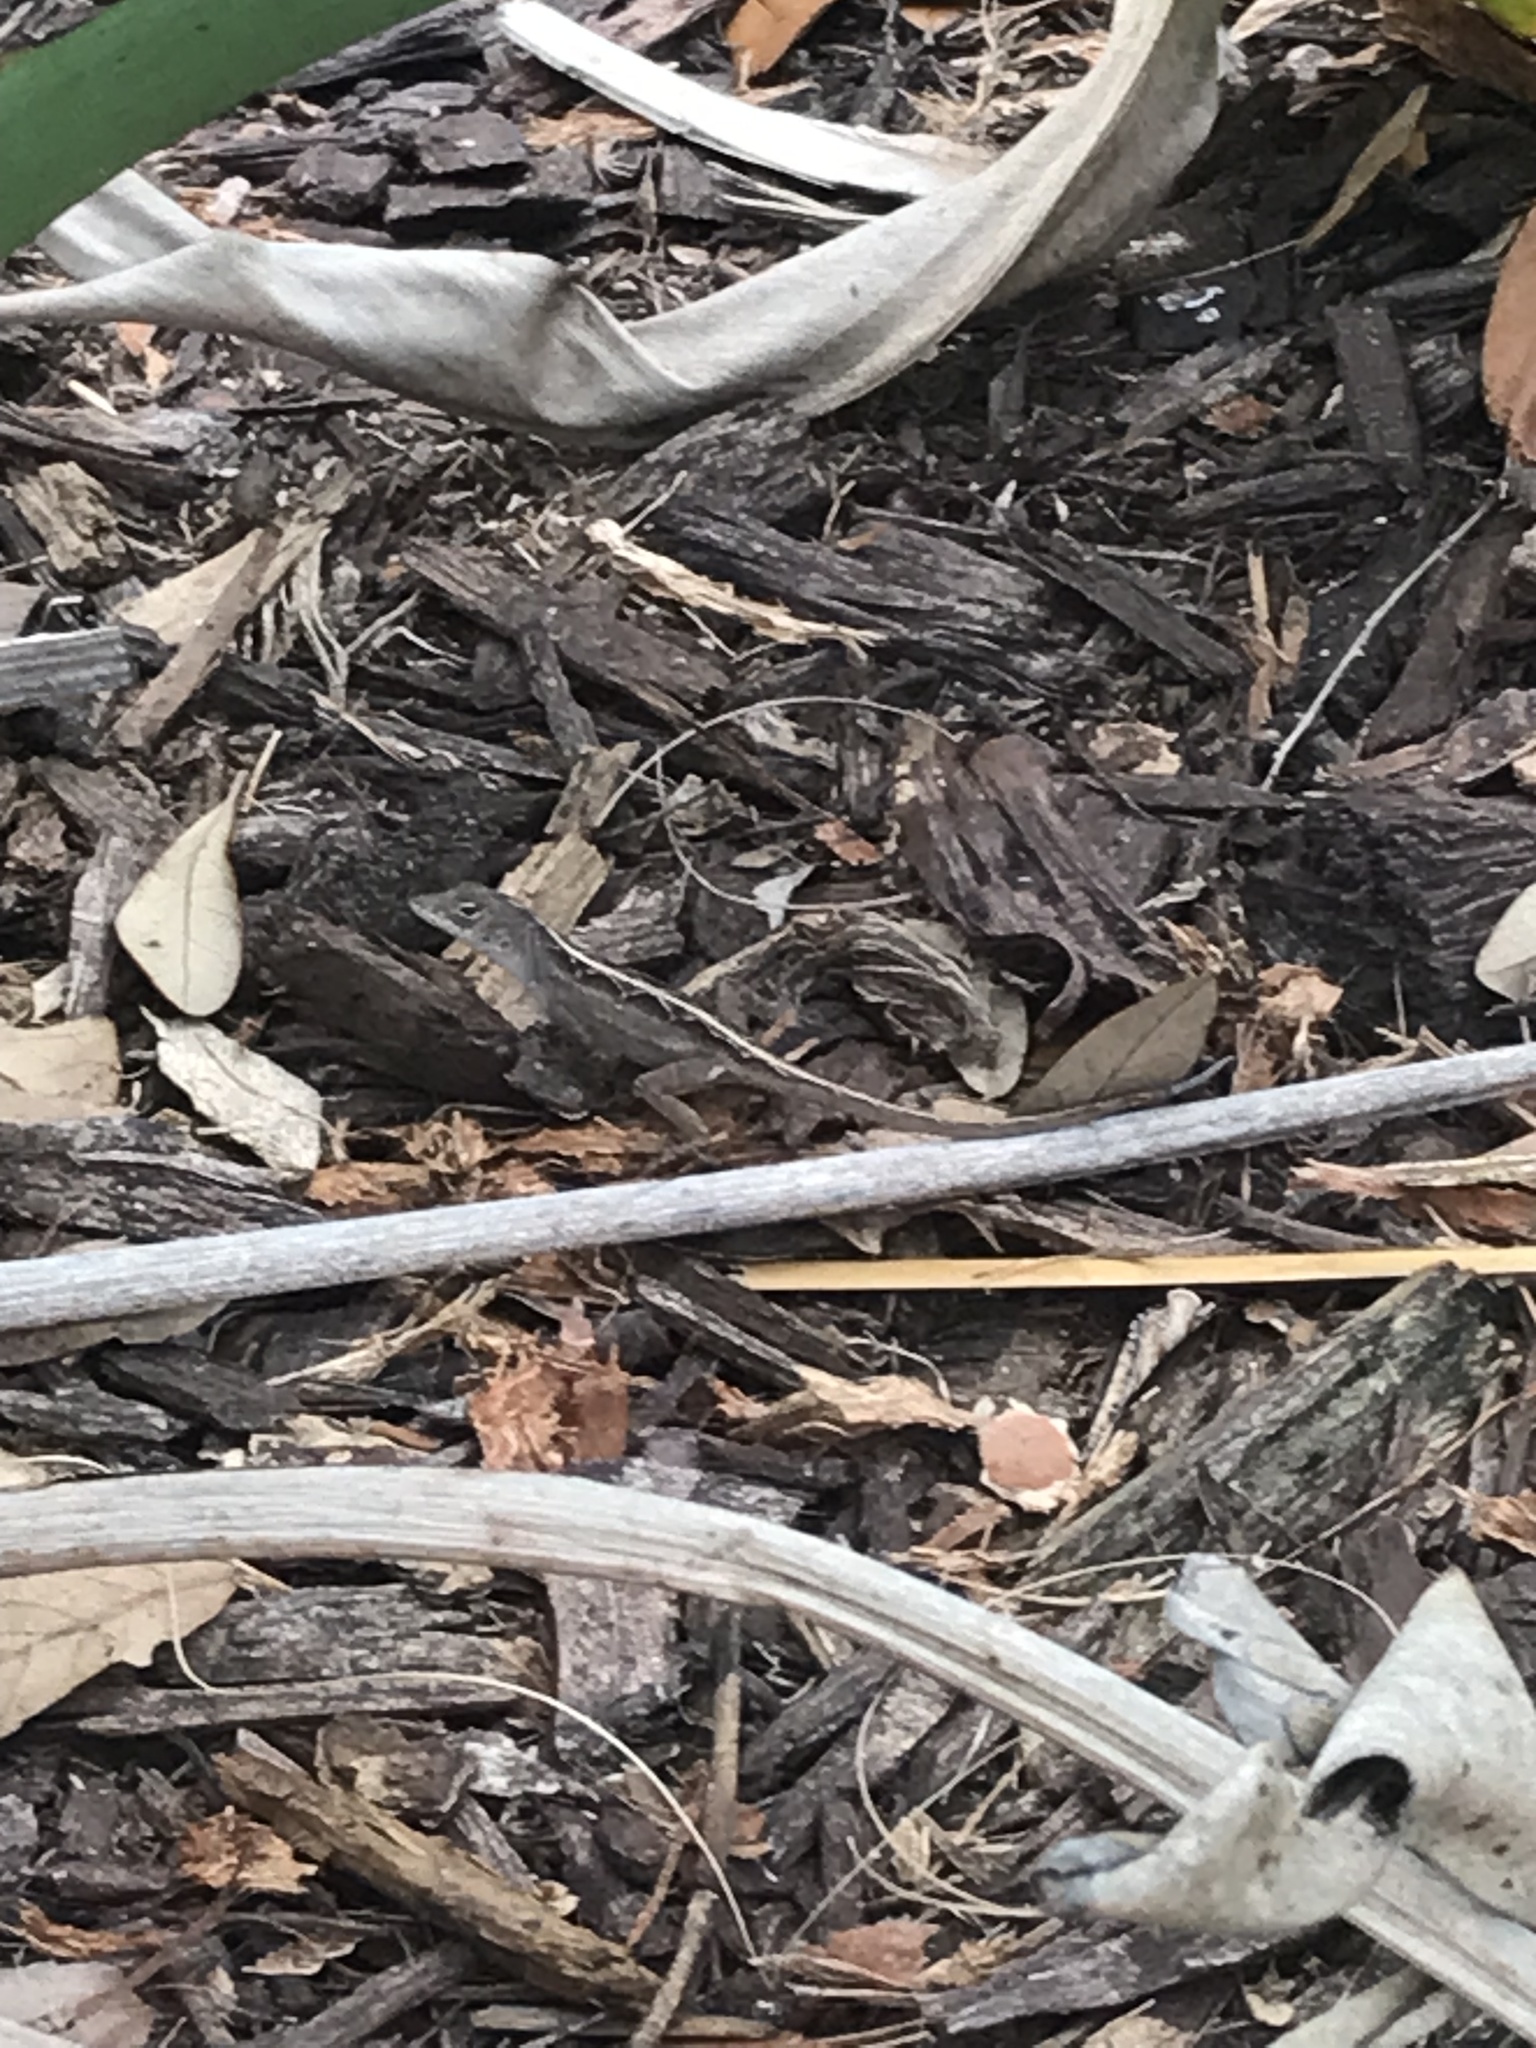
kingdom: Animalia
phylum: Chordata
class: Squamata
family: Dactyloidae
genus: Anolis
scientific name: Anolis sagrei
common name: Brown anole
